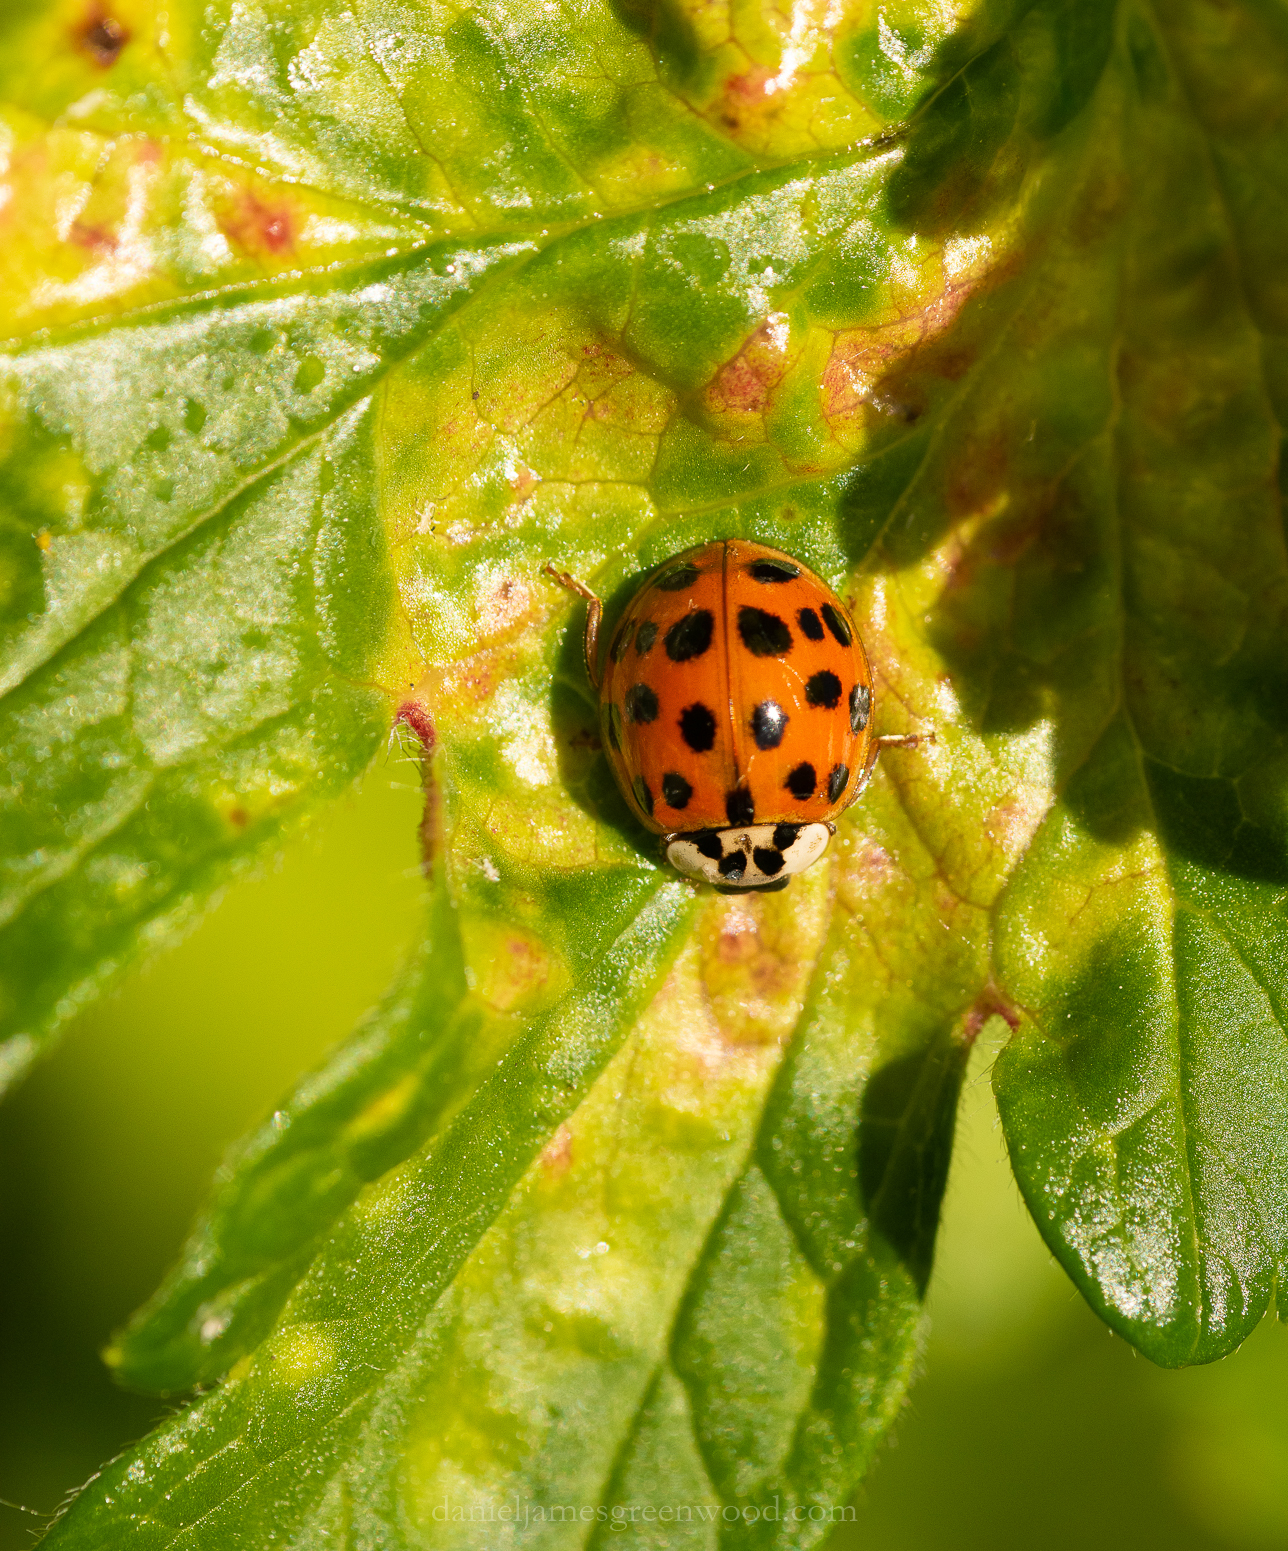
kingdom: Animalia
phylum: Arthropoda
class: Insecta
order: Coleoptera
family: Coccinellidae
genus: Harmonia
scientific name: Harmonia axyridis
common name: Harlequin ladybird
